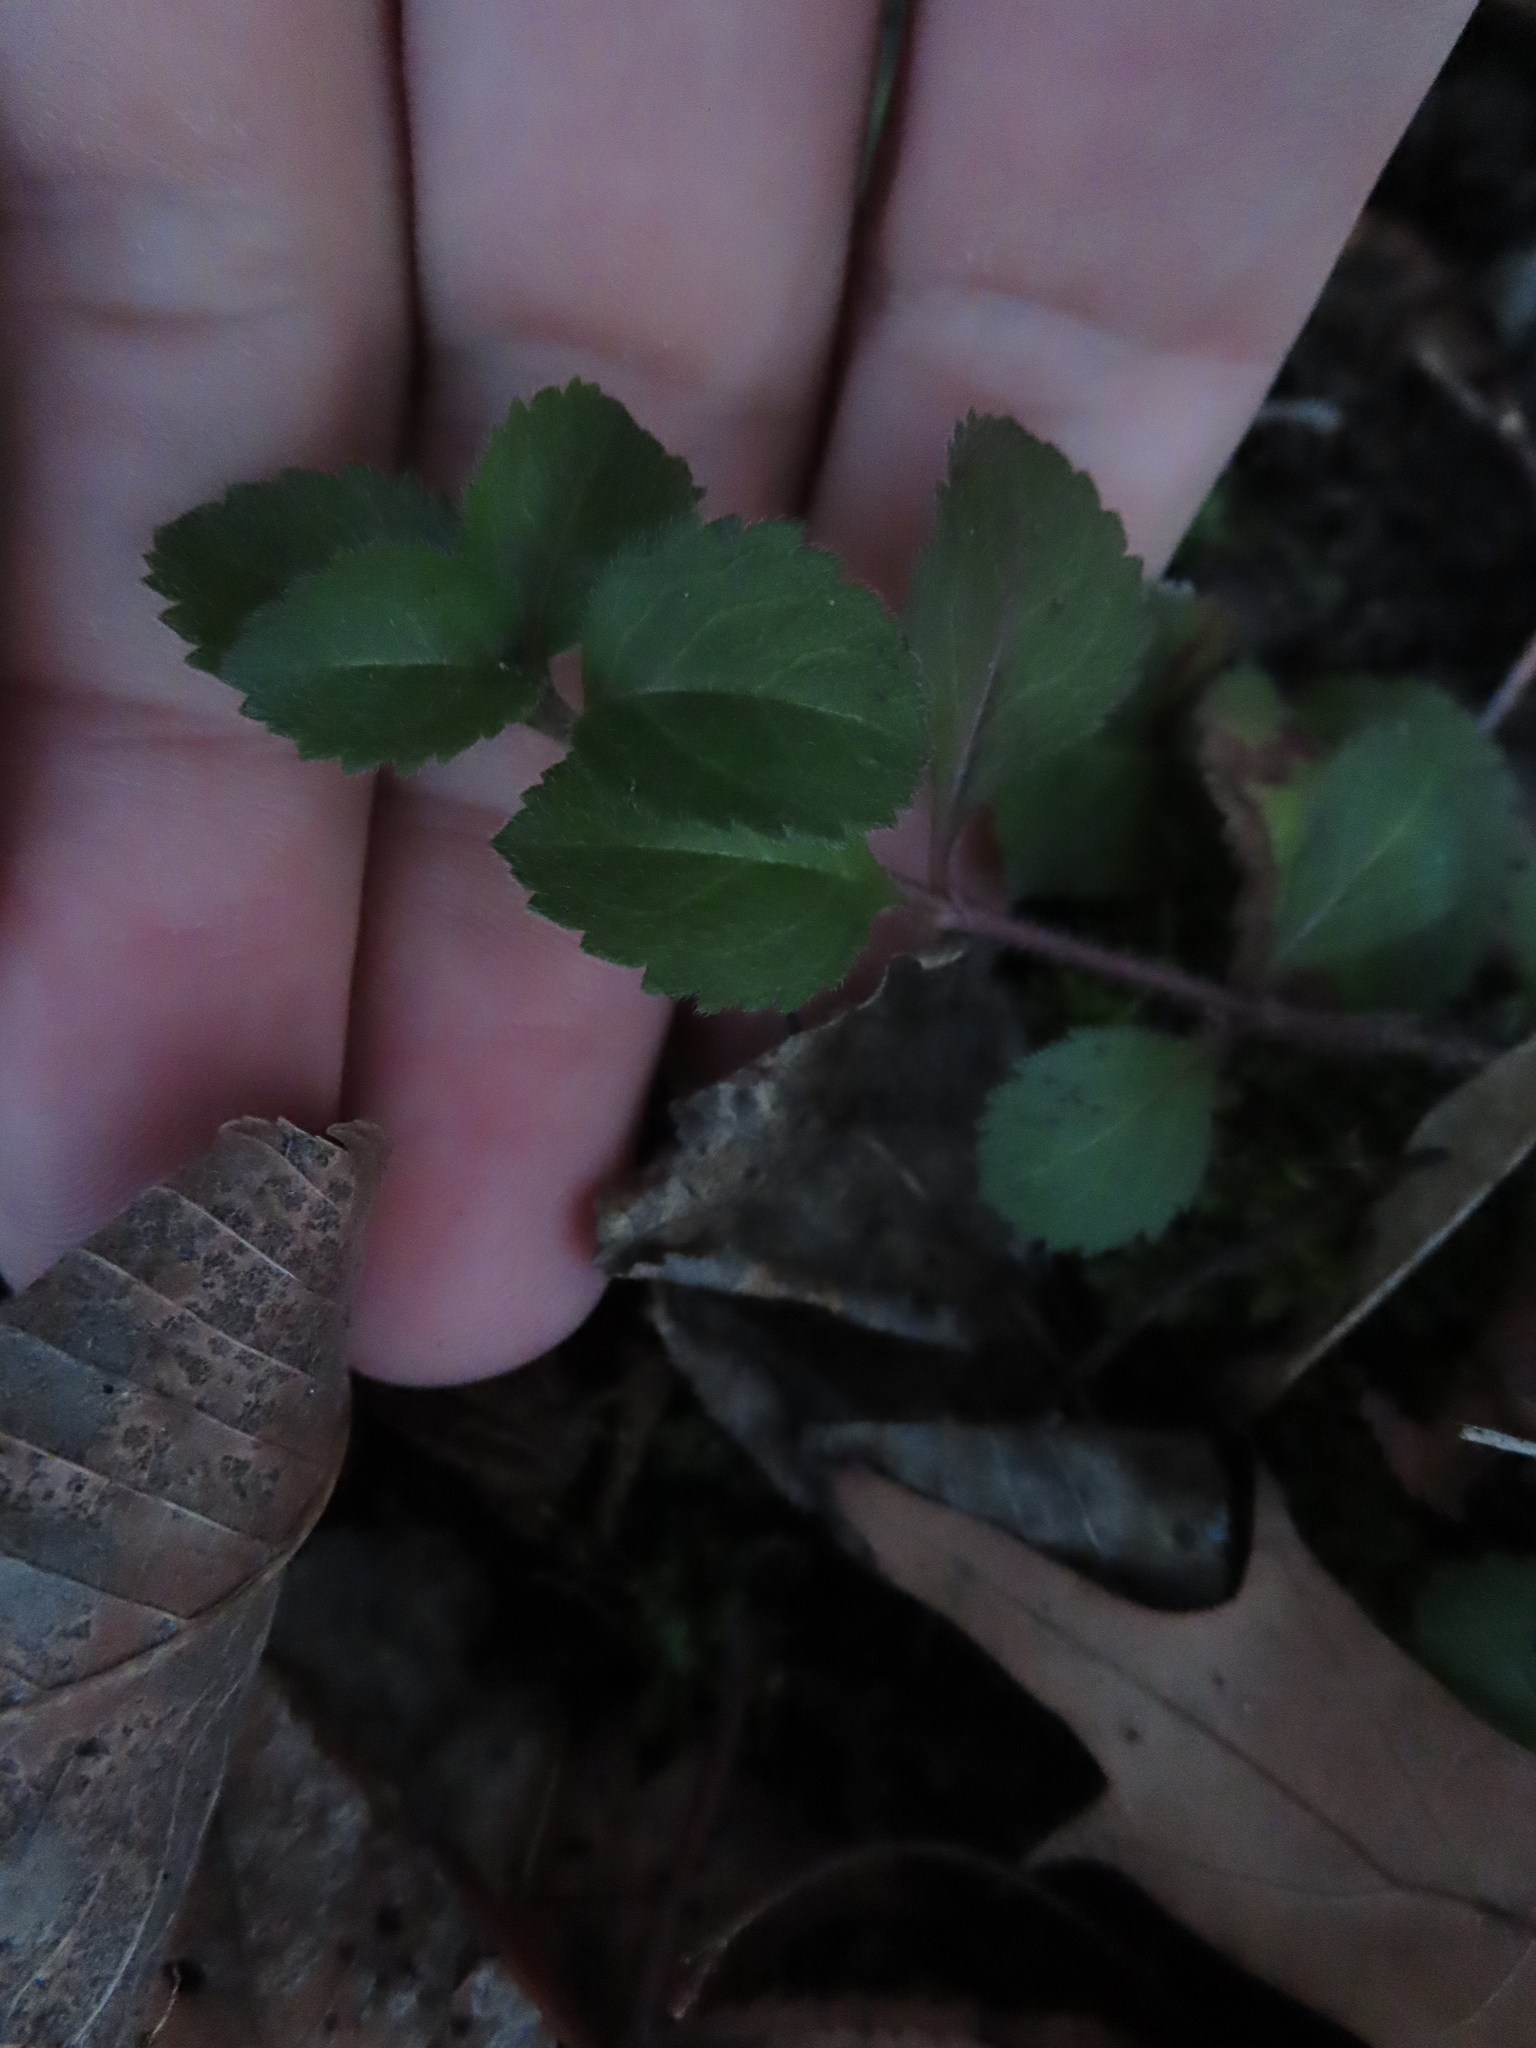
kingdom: Plantae
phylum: Tracheophyta
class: Magnoliopsida
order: Lamiales
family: Plantaginaceae
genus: Veronica
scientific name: Veronica officinalis
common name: Common speedwell
